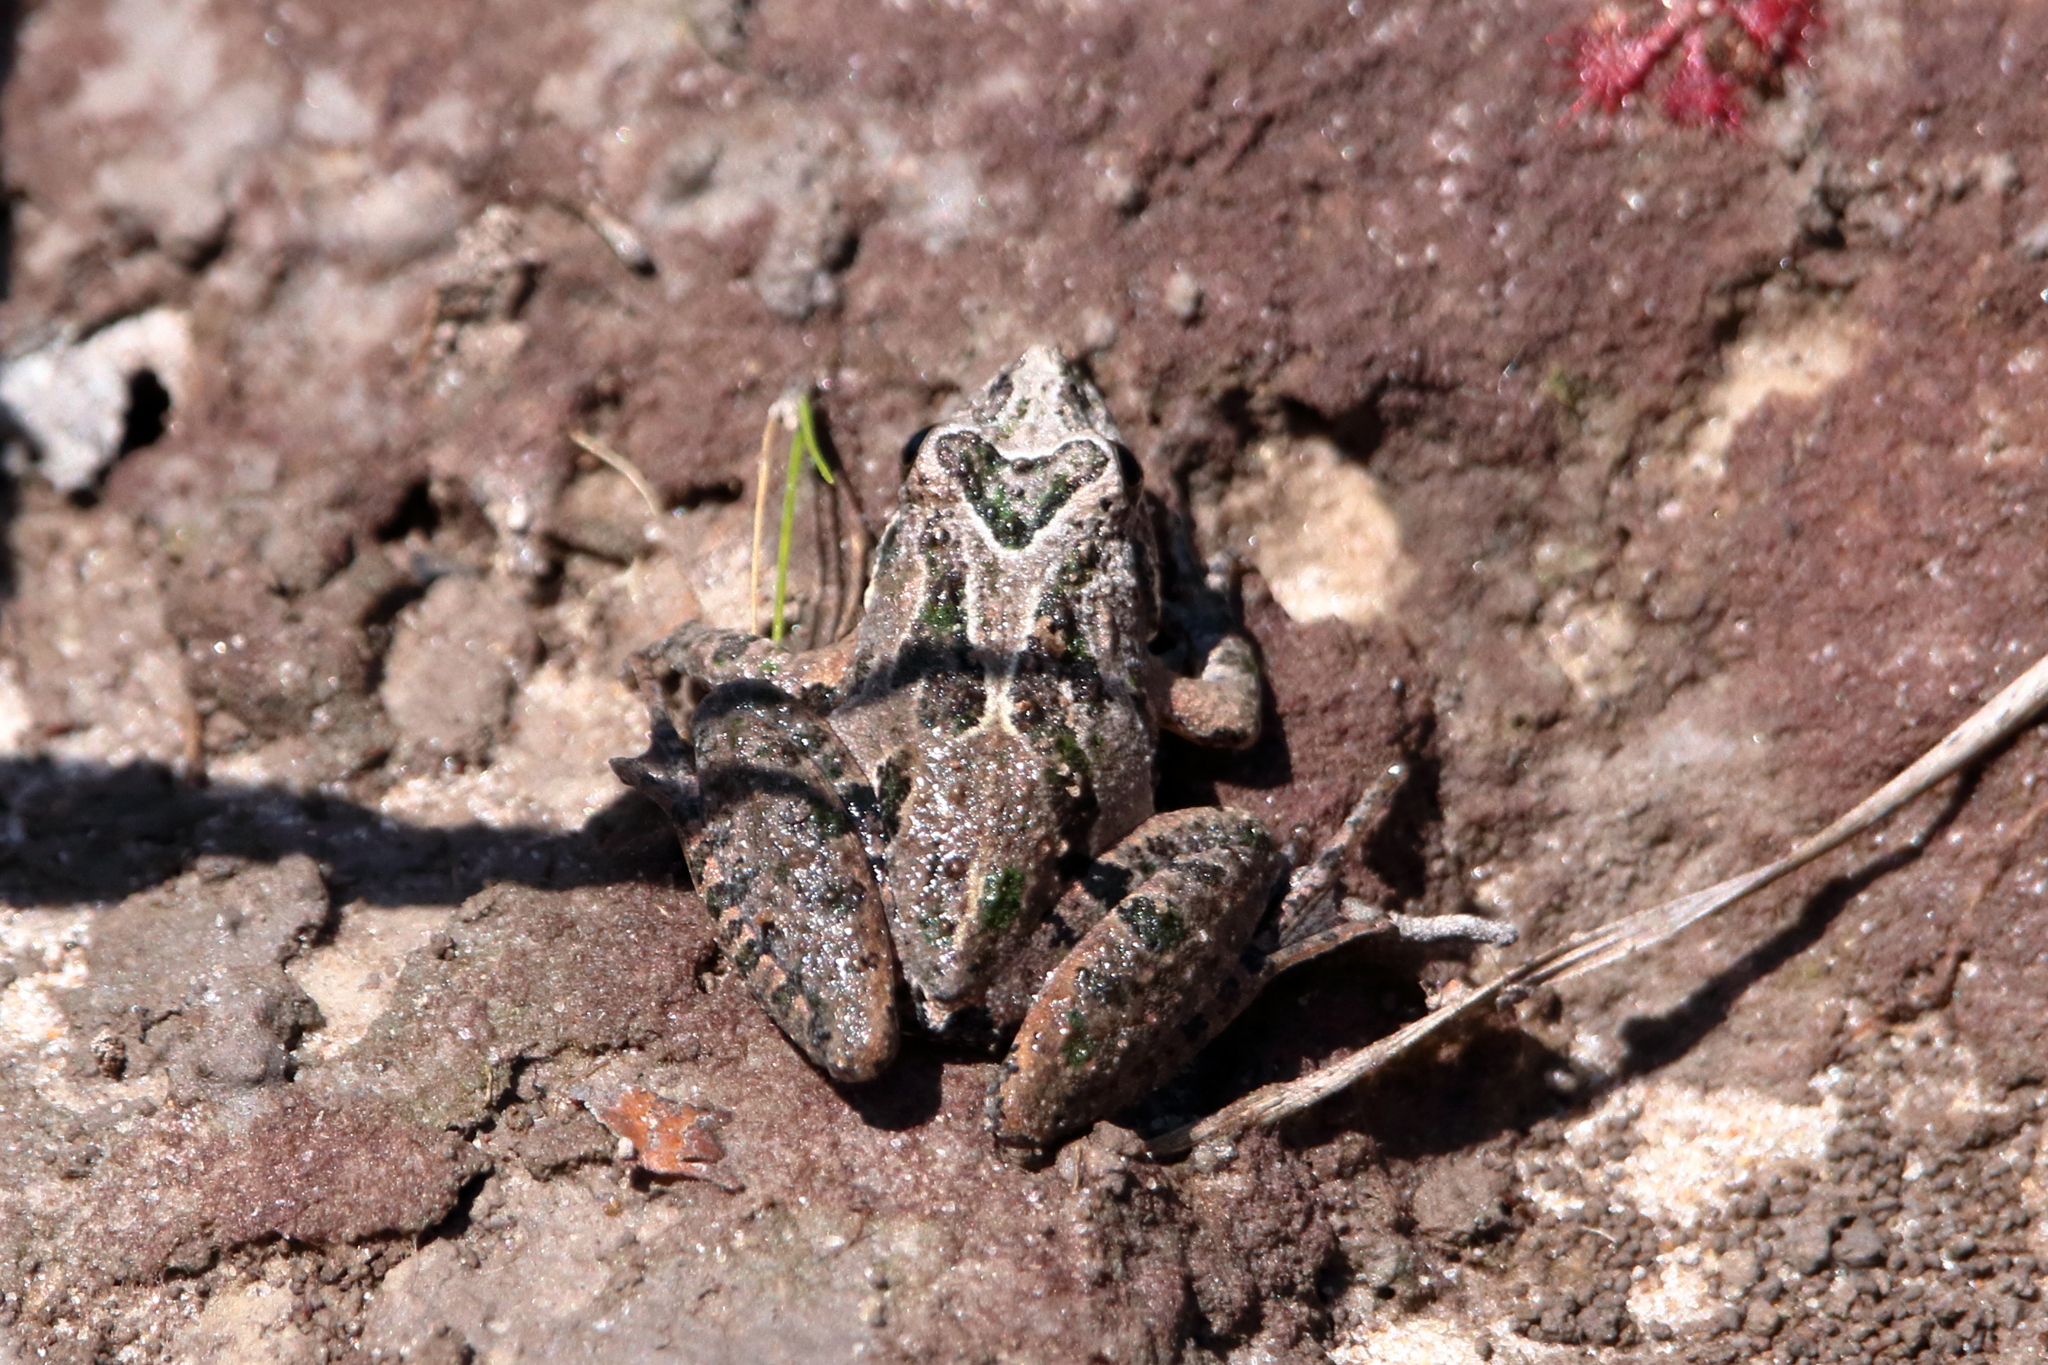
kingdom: Animalia
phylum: Chordata
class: Amphibia
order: Anura
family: Hylidae
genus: Acris
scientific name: Acris gryllus
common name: Southern cricket frog
